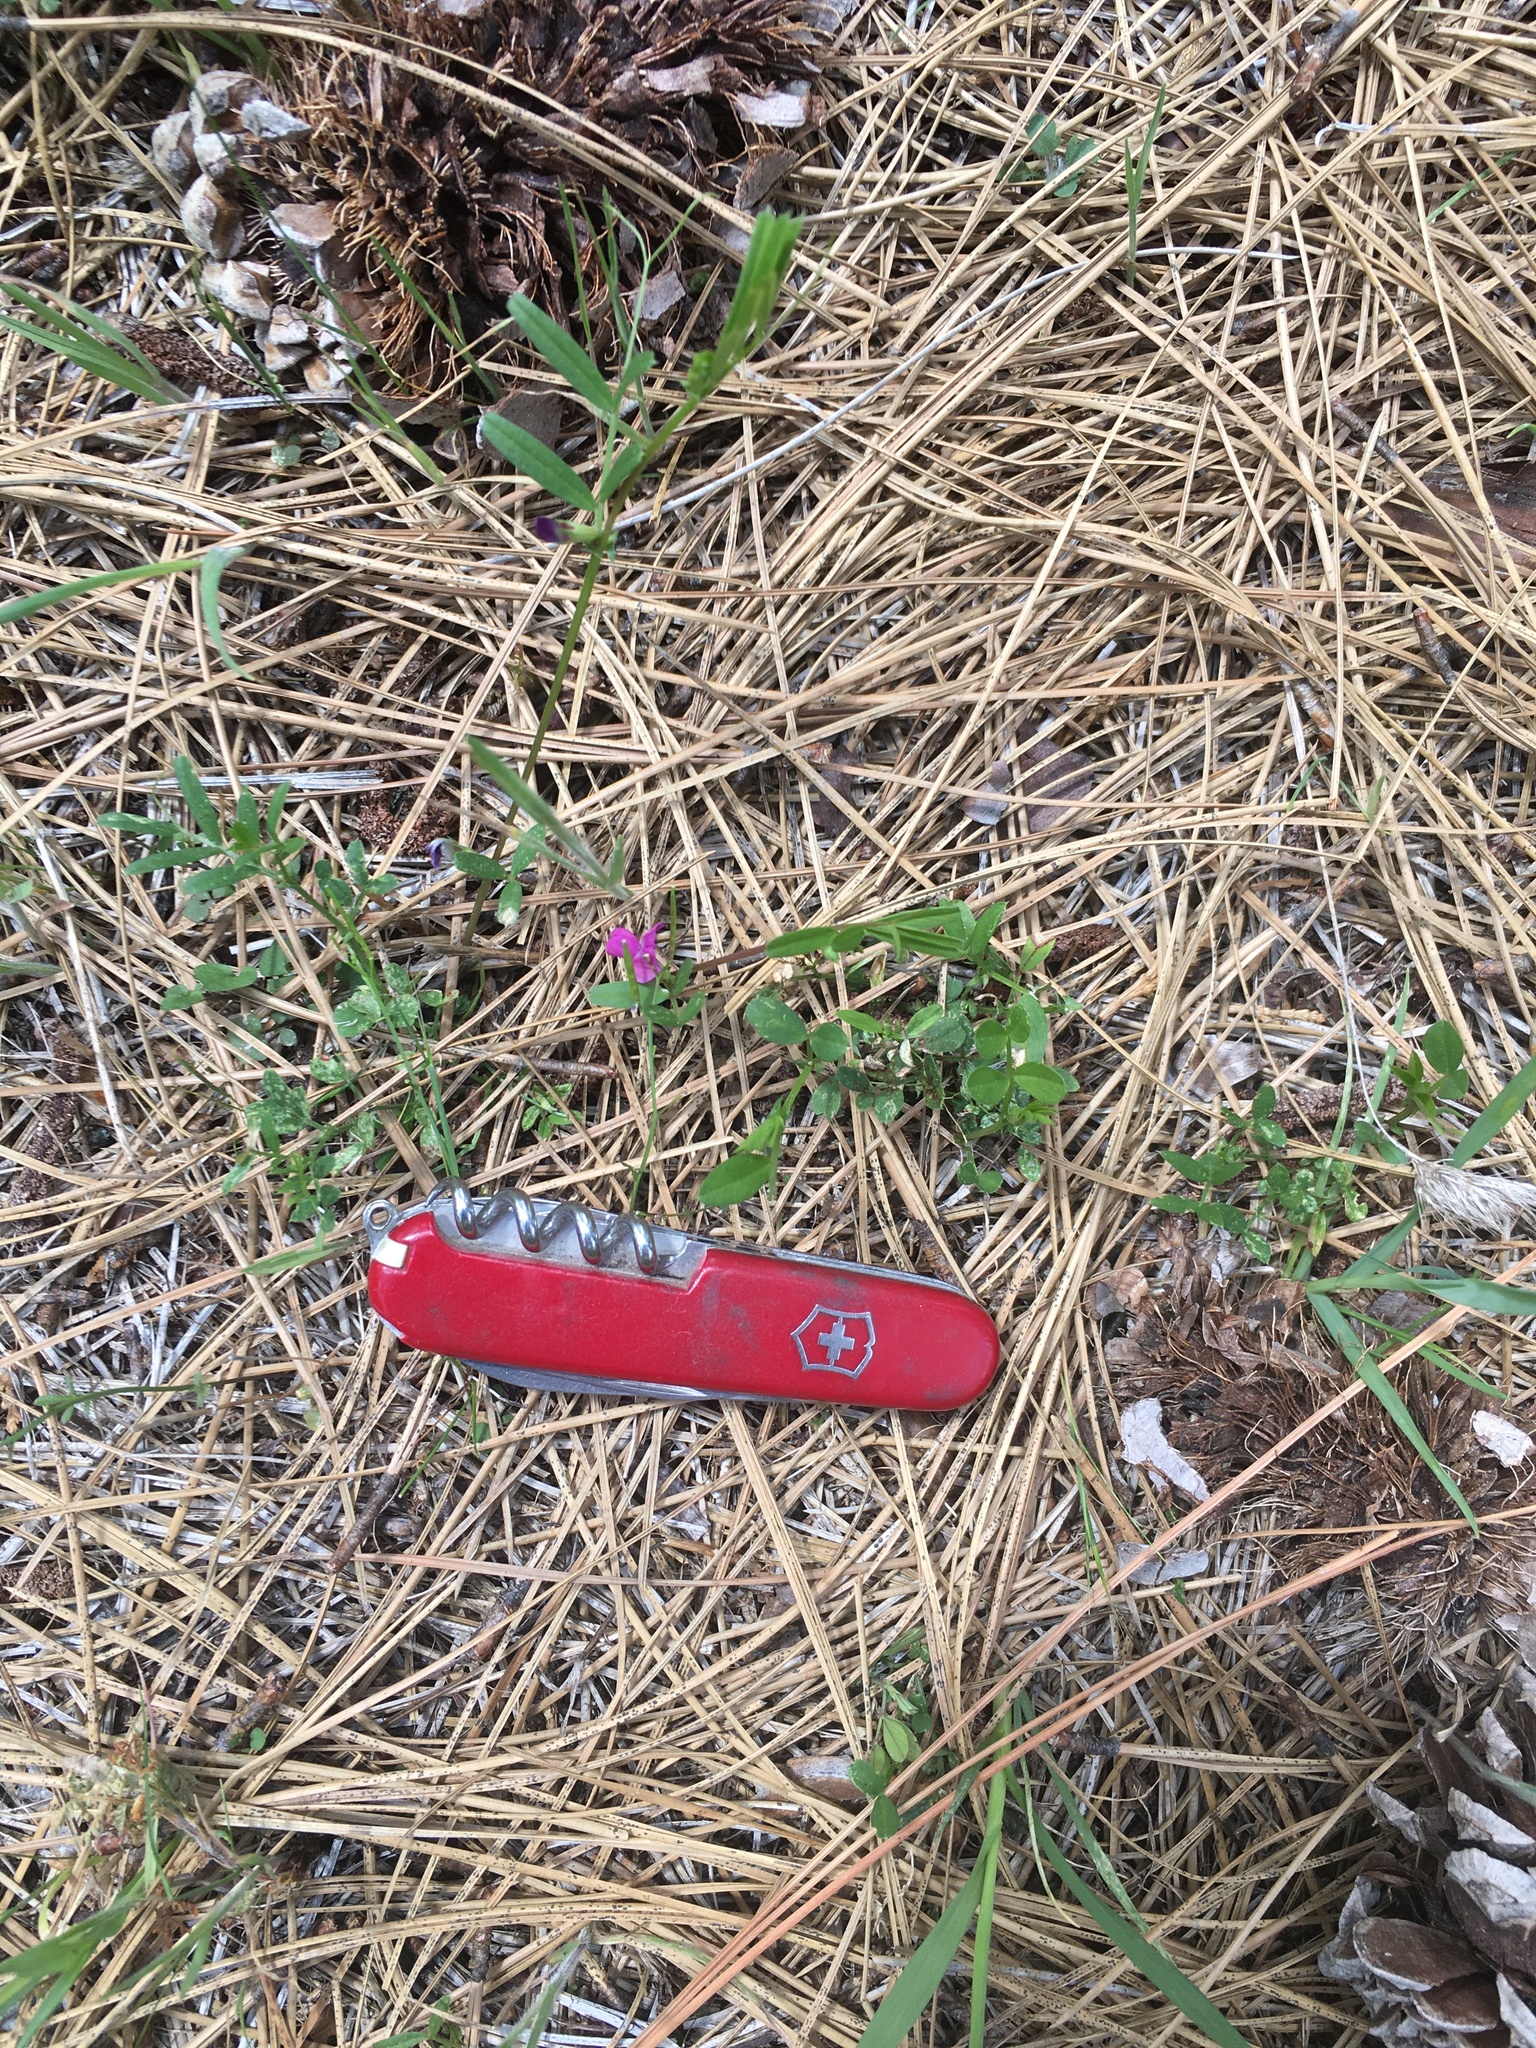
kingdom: Plantae
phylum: Tracheophyta
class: Magnoliopsida
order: Fabales
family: Fabaceae
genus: Vicia
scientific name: Vicia sativa
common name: Garden vetch
